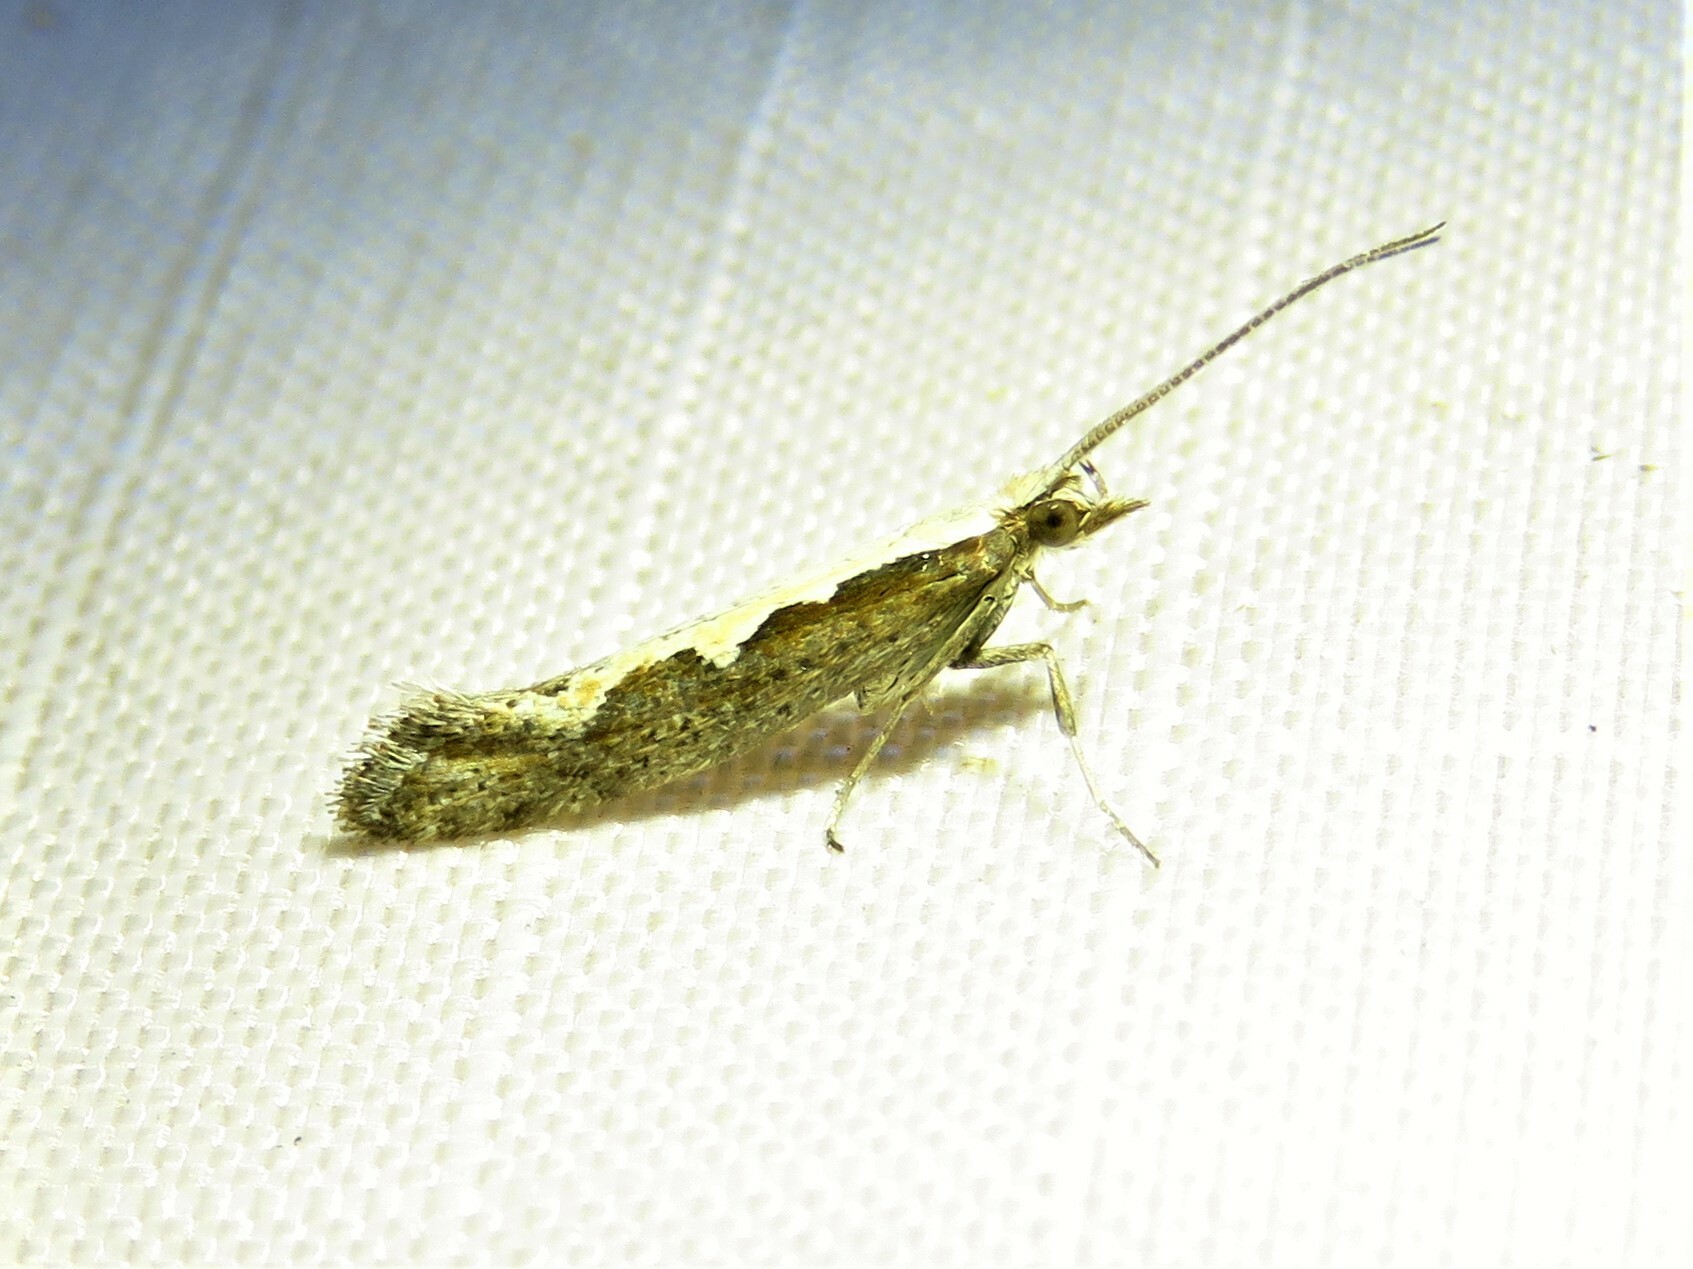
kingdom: Animalia
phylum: Arthropoda
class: Insecta
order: Lepidoptera
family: Plutellidae
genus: Plutella
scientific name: Plutella xylostella
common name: Diamond-back moth
